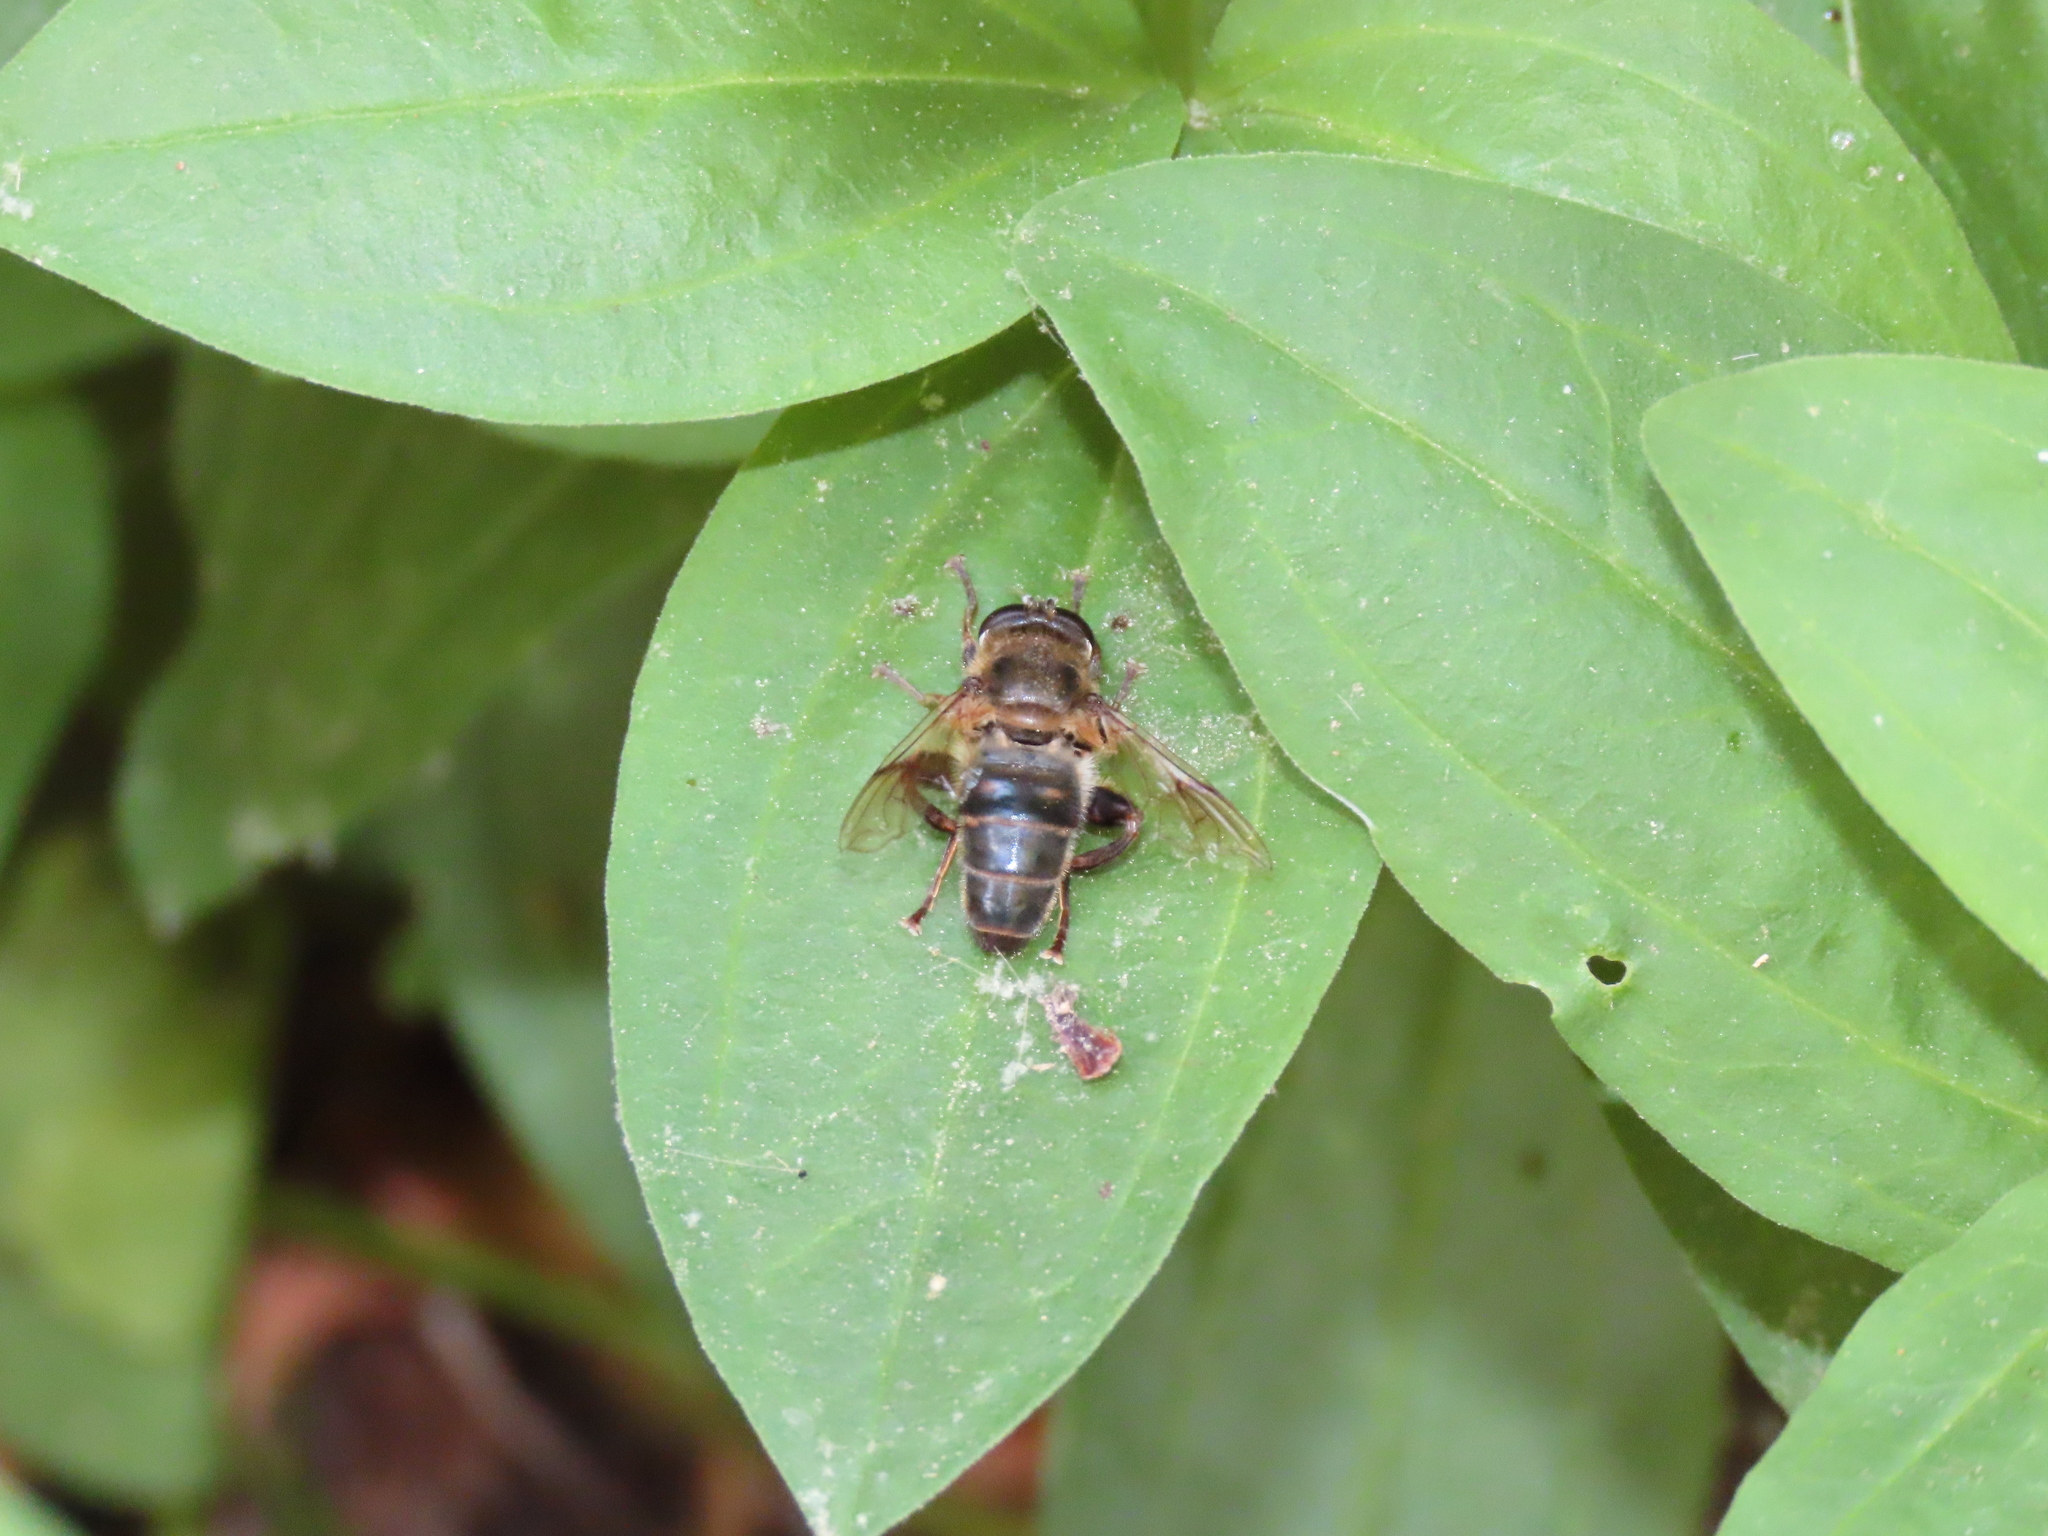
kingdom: Animalia
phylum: Arthropoda
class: Insecta
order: Diptera
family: Syrphidae
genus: Mallota
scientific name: Mallota dusmeti
